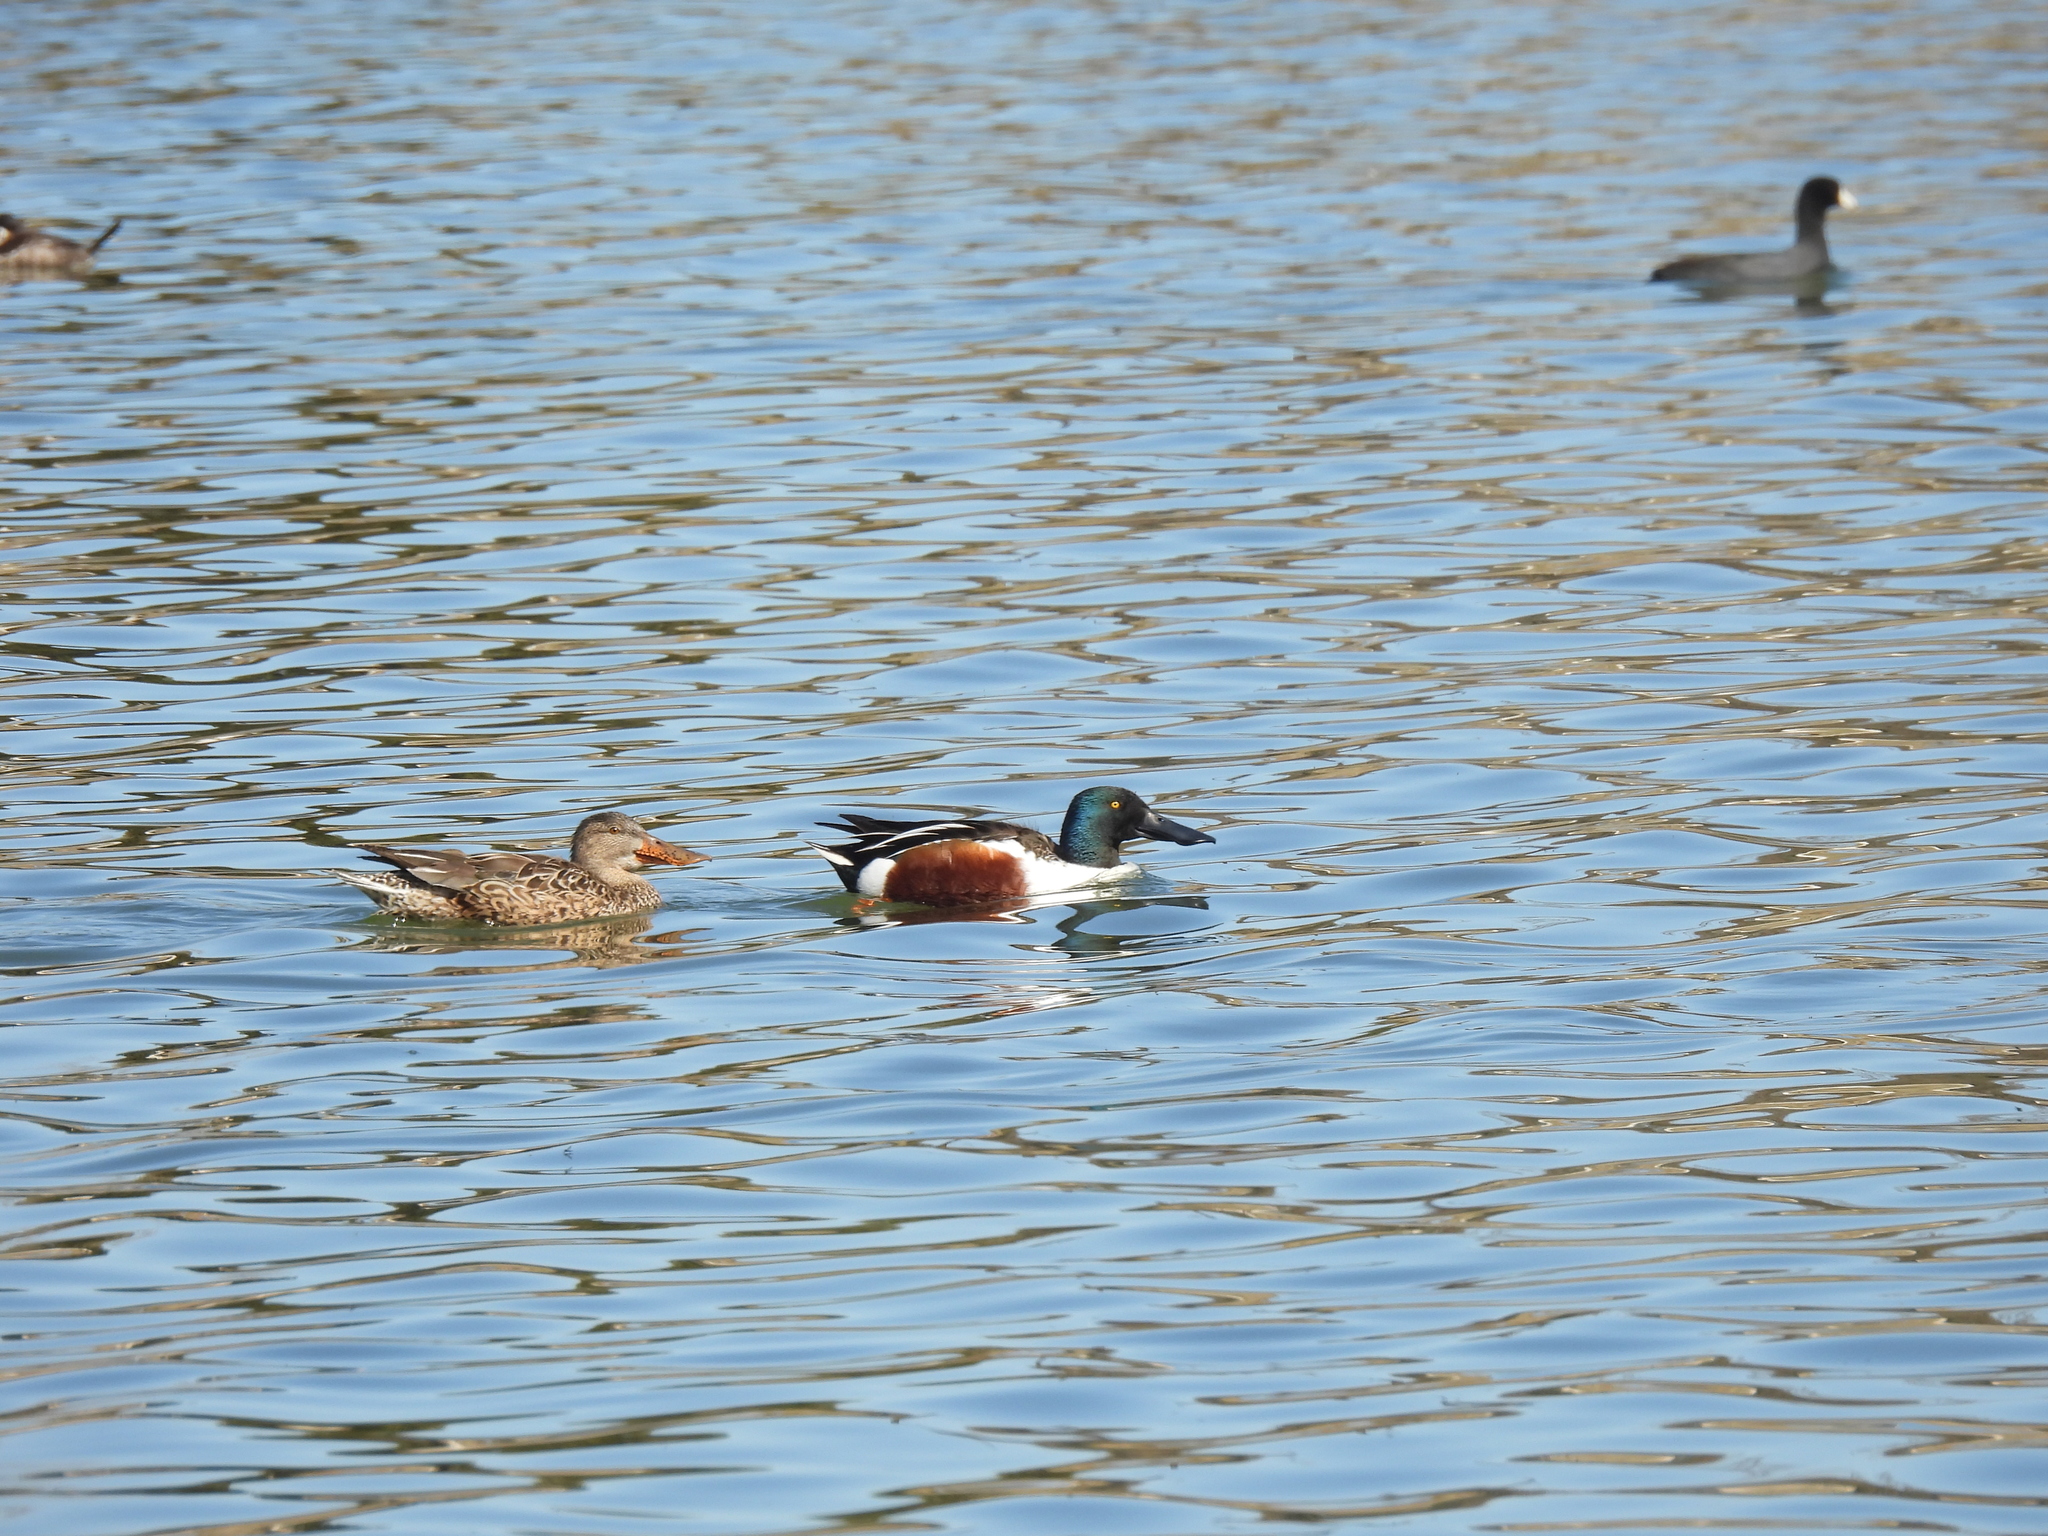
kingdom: Animalia
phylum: Chordata
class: Aves
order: Anseriformes
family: Anatidae
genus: Spatula
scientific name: Spatula clypeata
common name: Northern shoveler
